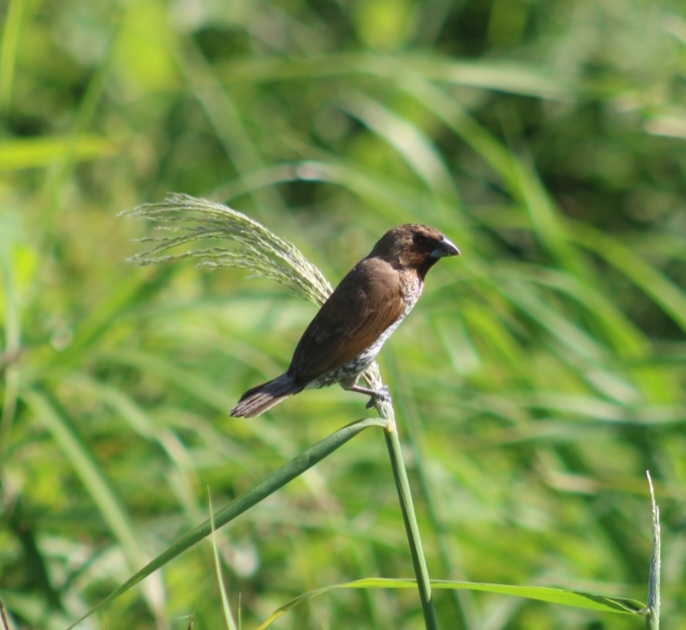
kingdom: Animalia
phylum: Chordata
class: Aves
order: Passeriformes
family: Estrildidae
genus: Lonchura
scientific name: Lonchura punctulata
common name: Scaly-breasted munia
